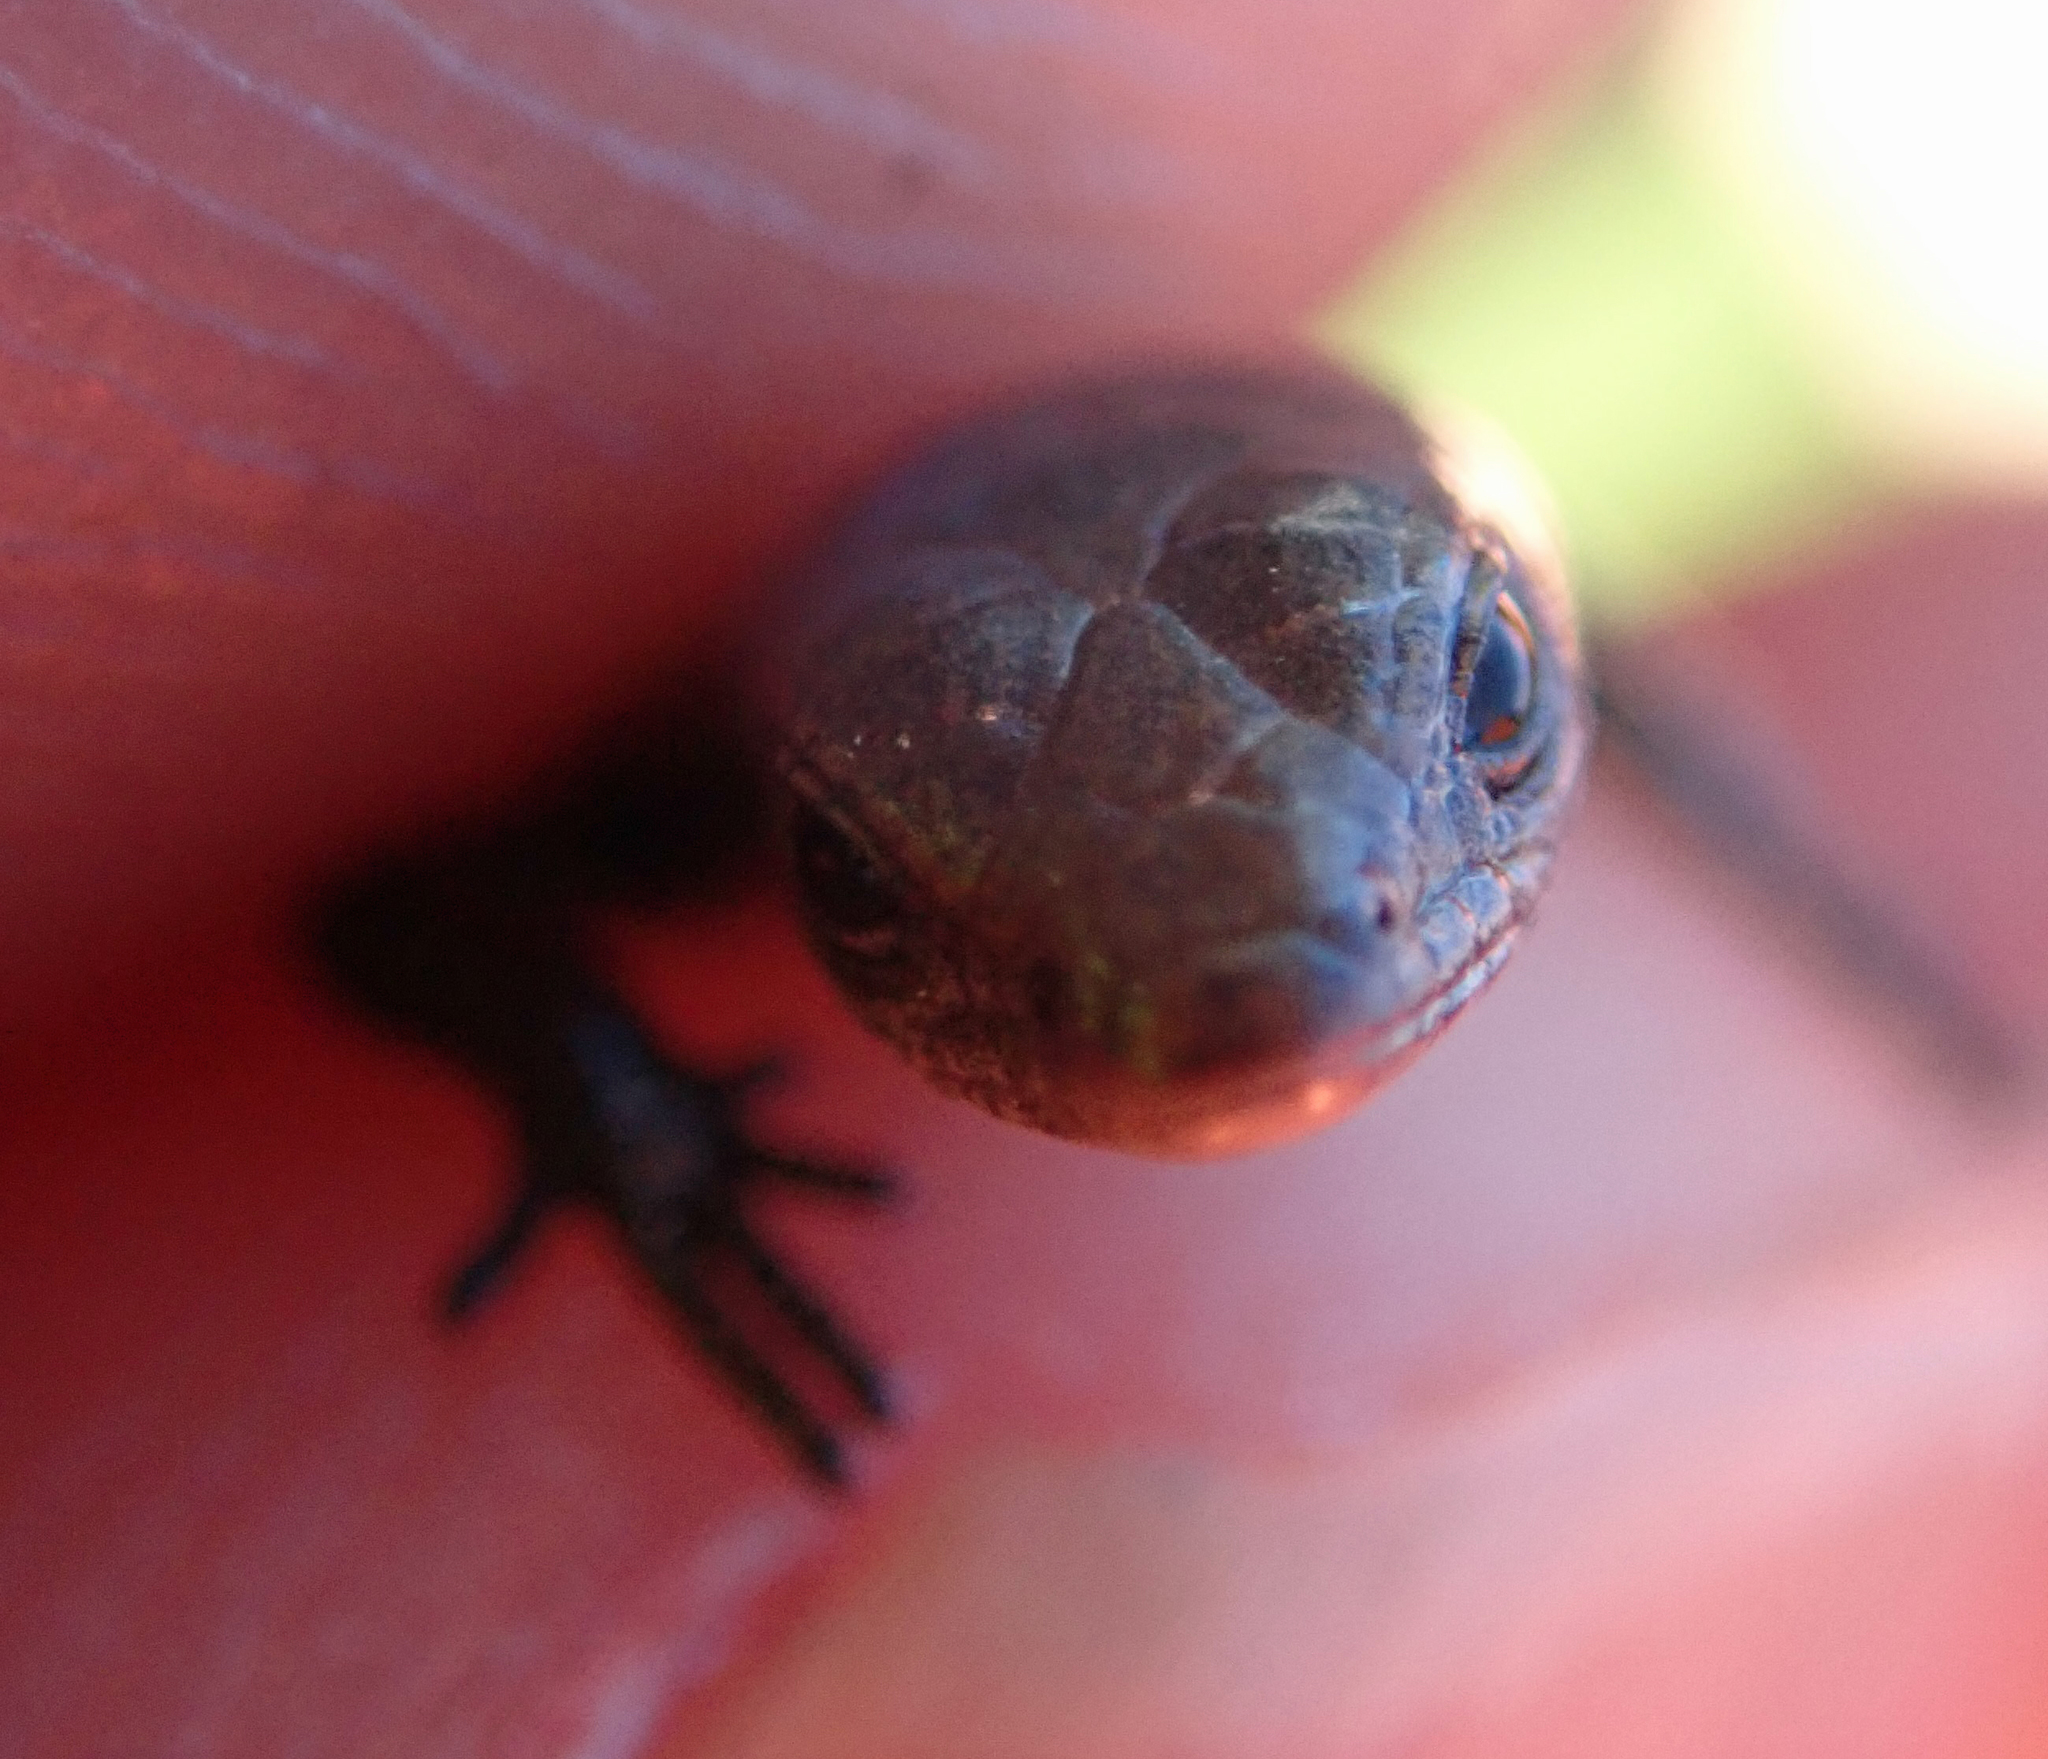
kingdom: Animalia
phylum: Chordata
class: Squamata
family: Scincidae
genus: Lampropholis
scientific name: Lampropholis delicata
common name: Plague skink
